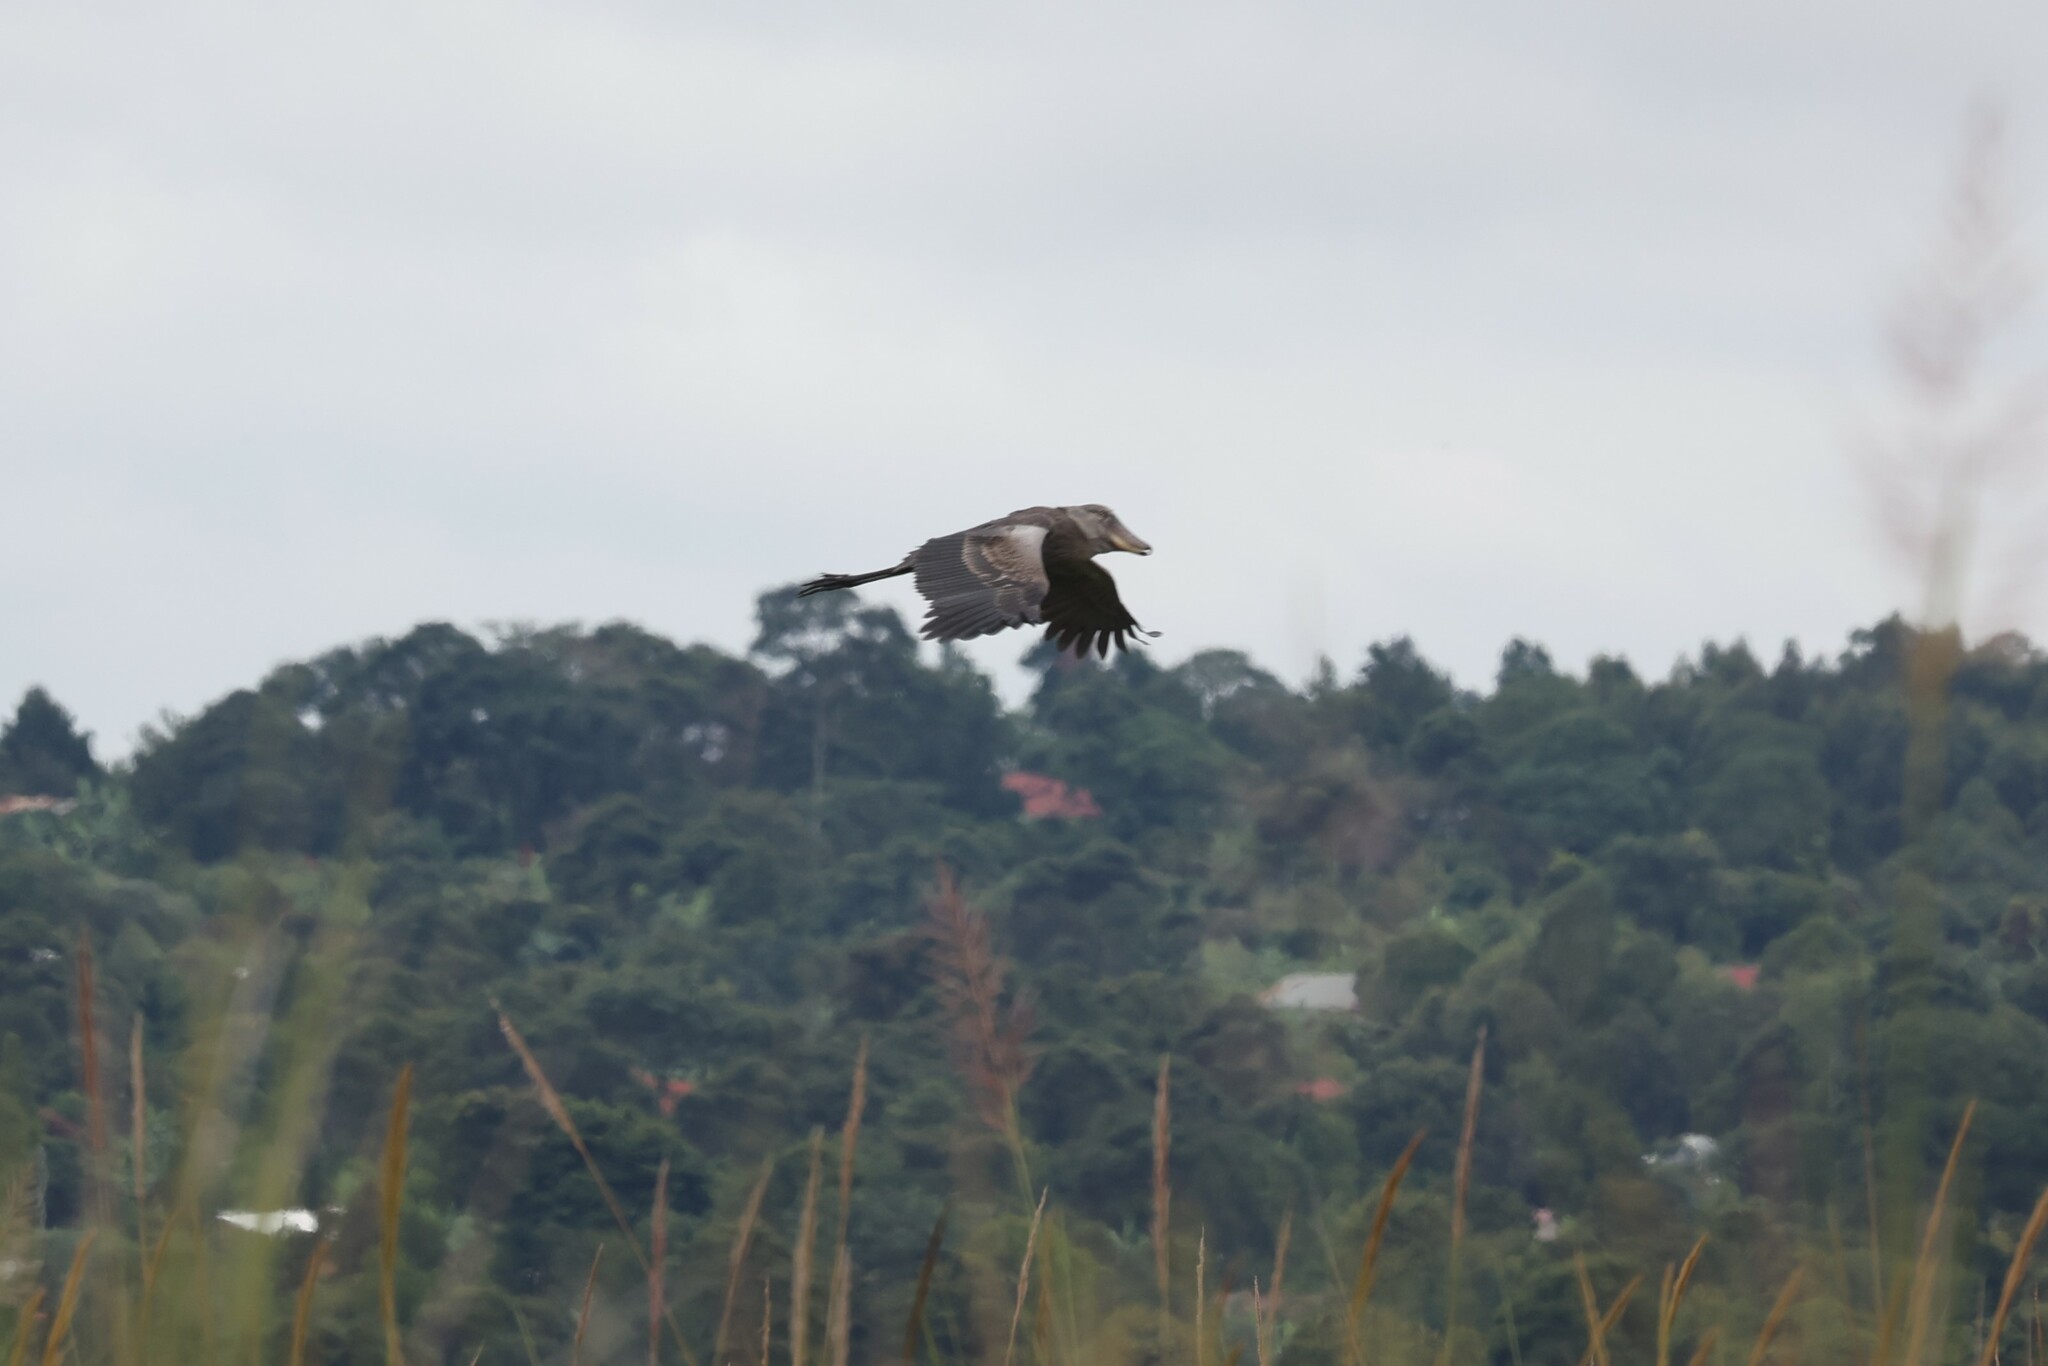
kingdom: Animalia
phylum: Chordata
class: Aves
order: Pelecaniformes
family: Balaenicipitidae
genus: Balaeniceps
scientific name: Balaeniceps rex
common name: Shoebill
